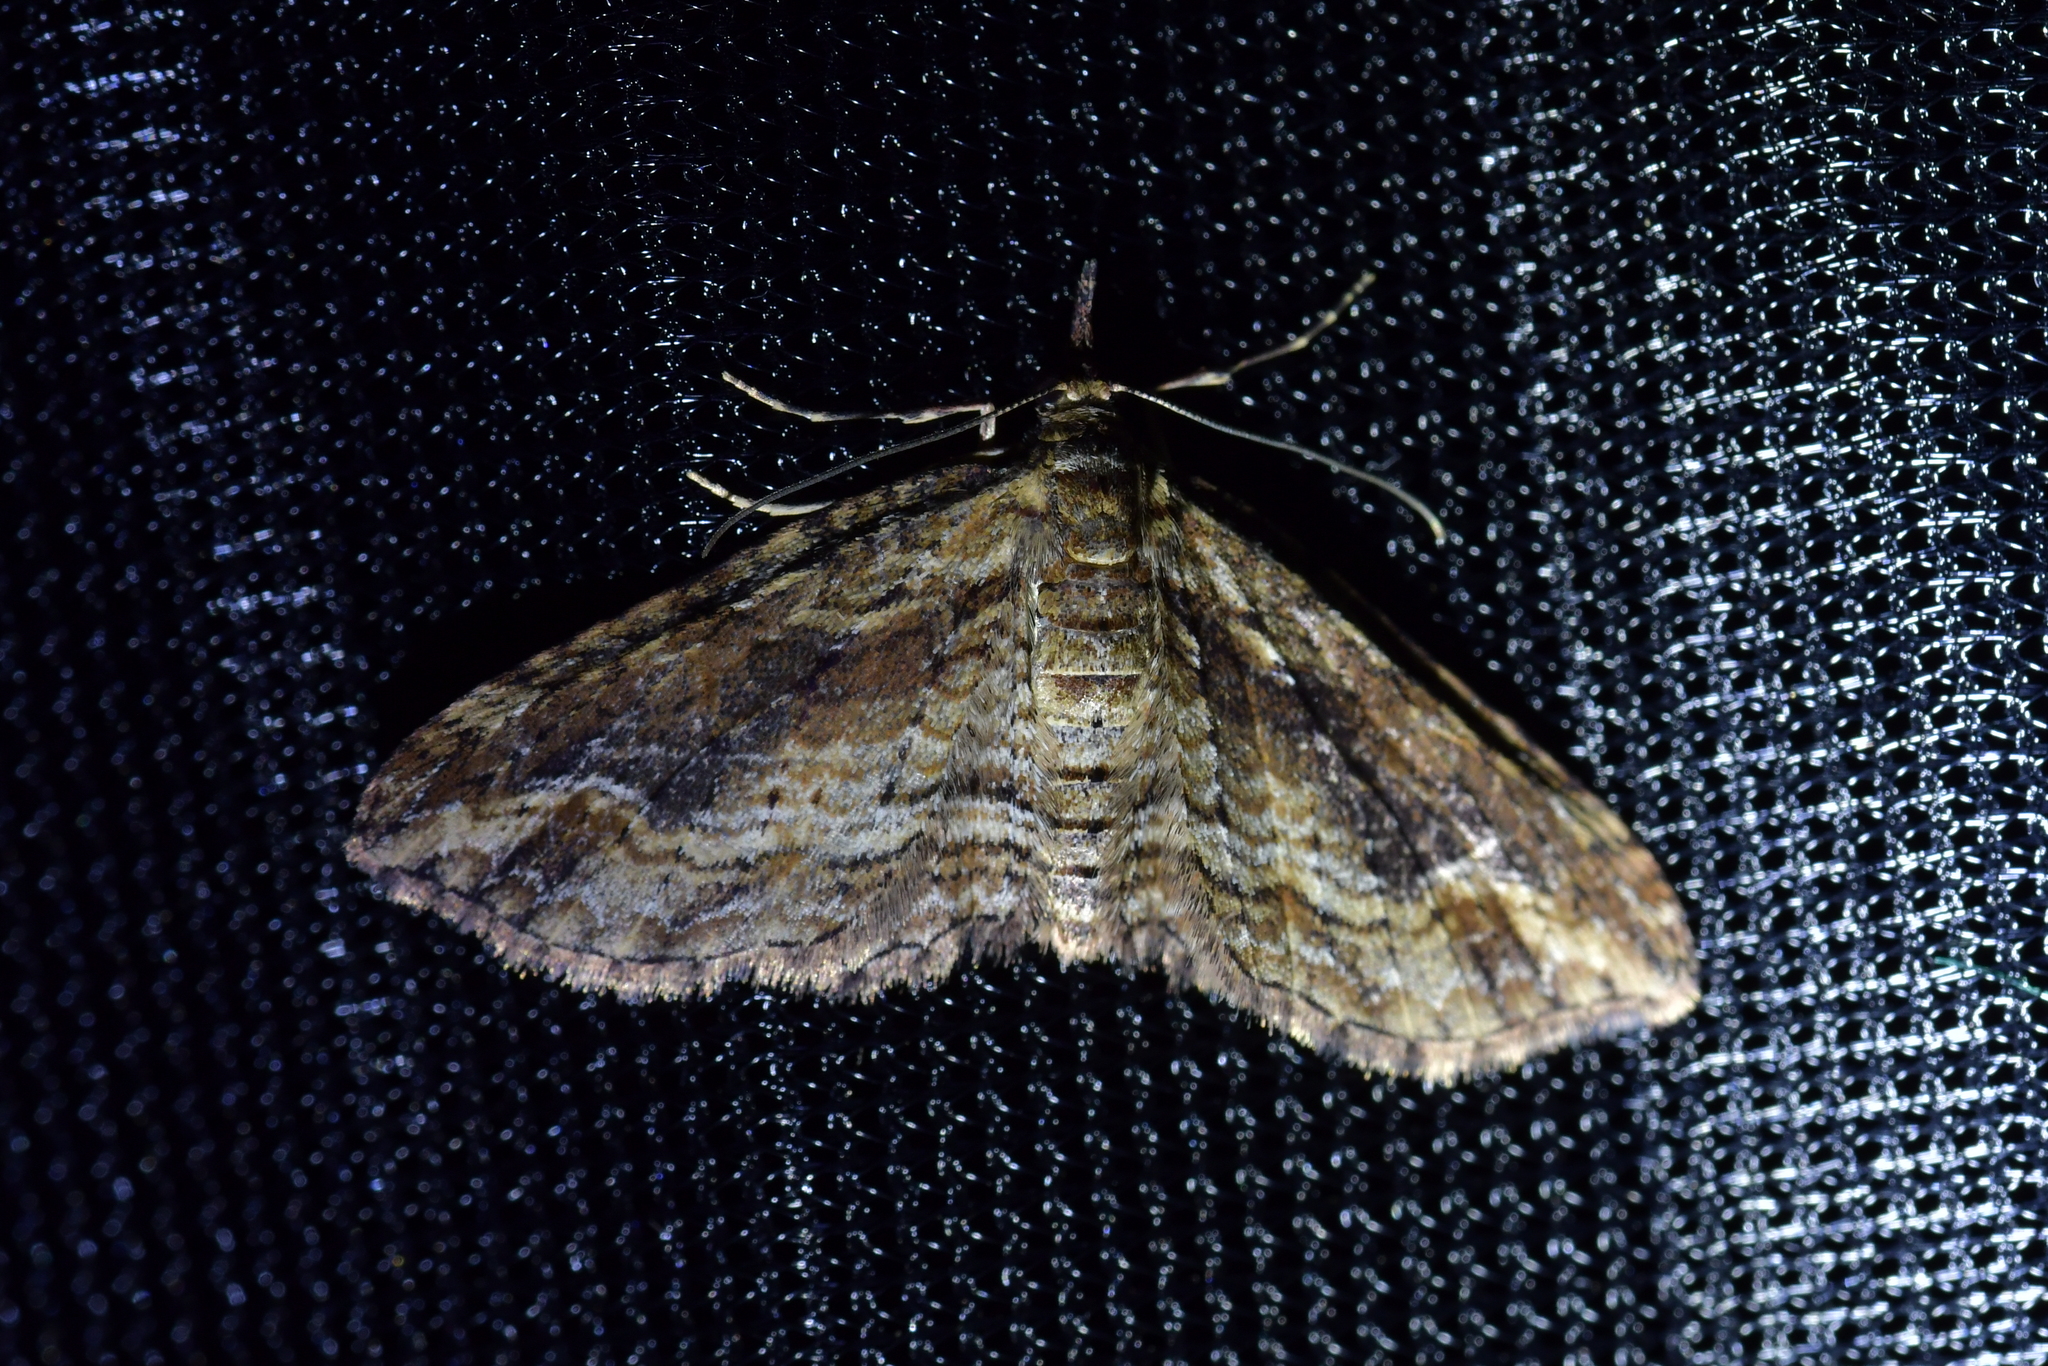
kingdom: Animalia
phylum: Arthropoda
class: Insecta
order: Lepidoptera
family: Geometridae
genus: Chloroclystis
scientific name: Chloroclystis filata
